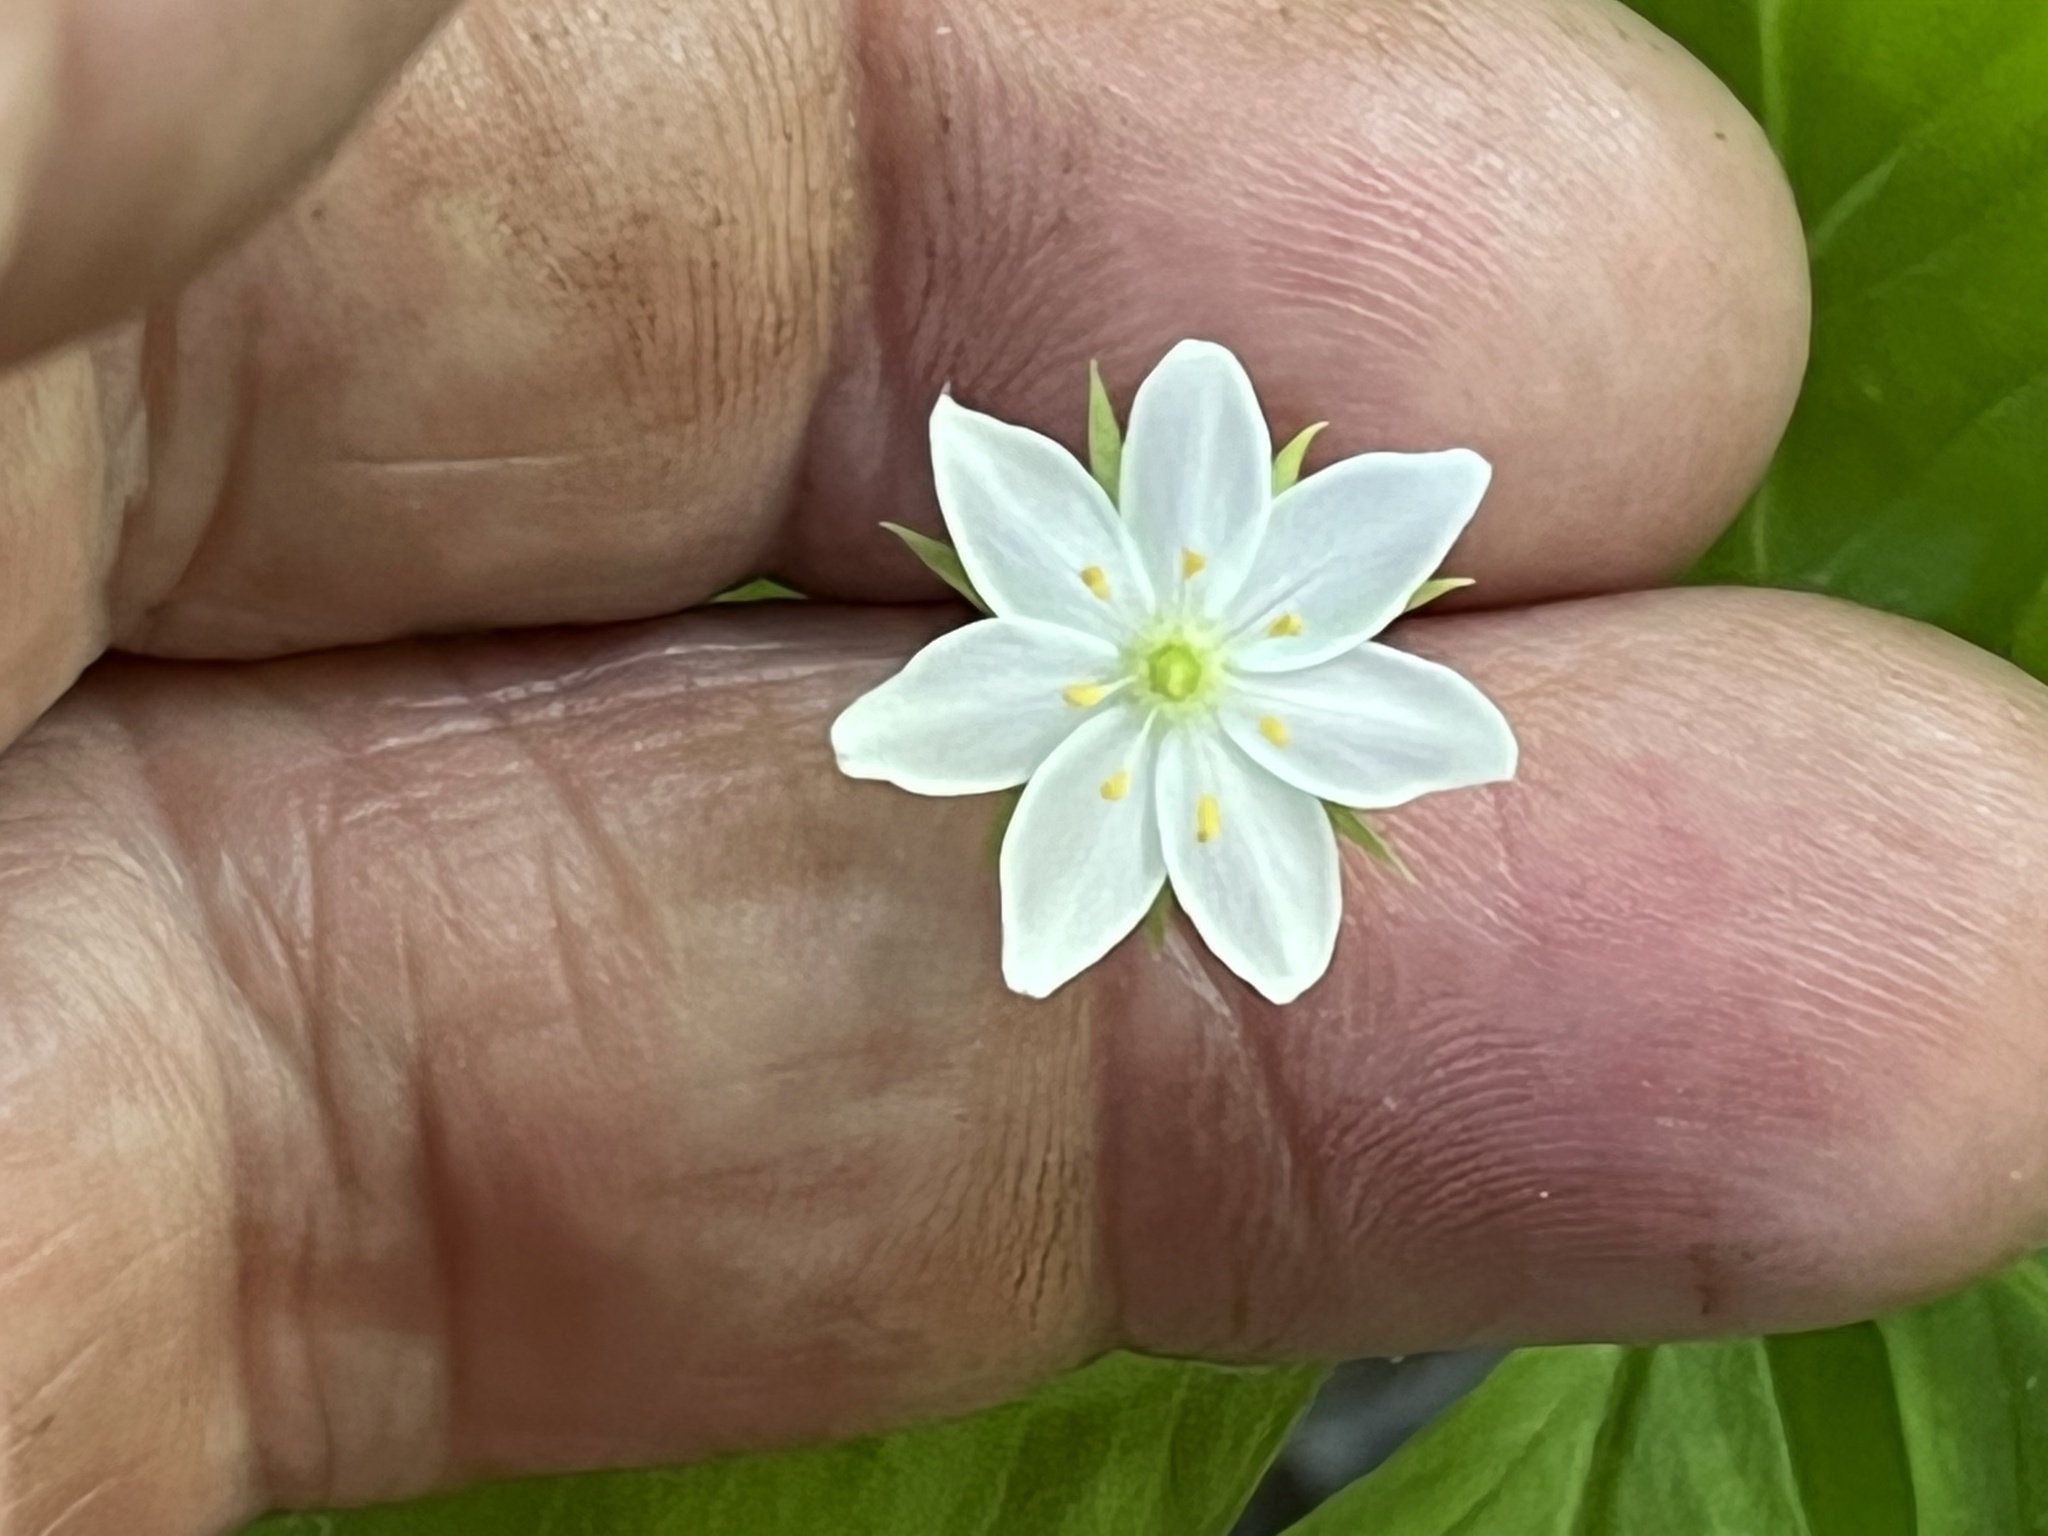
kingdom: Plantae
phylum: Tracheophyta
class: Magnoliopsida
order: Ericales
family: Primulaceae
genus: Lysimachia
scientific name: Lysimachia borealis
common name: American starflower
